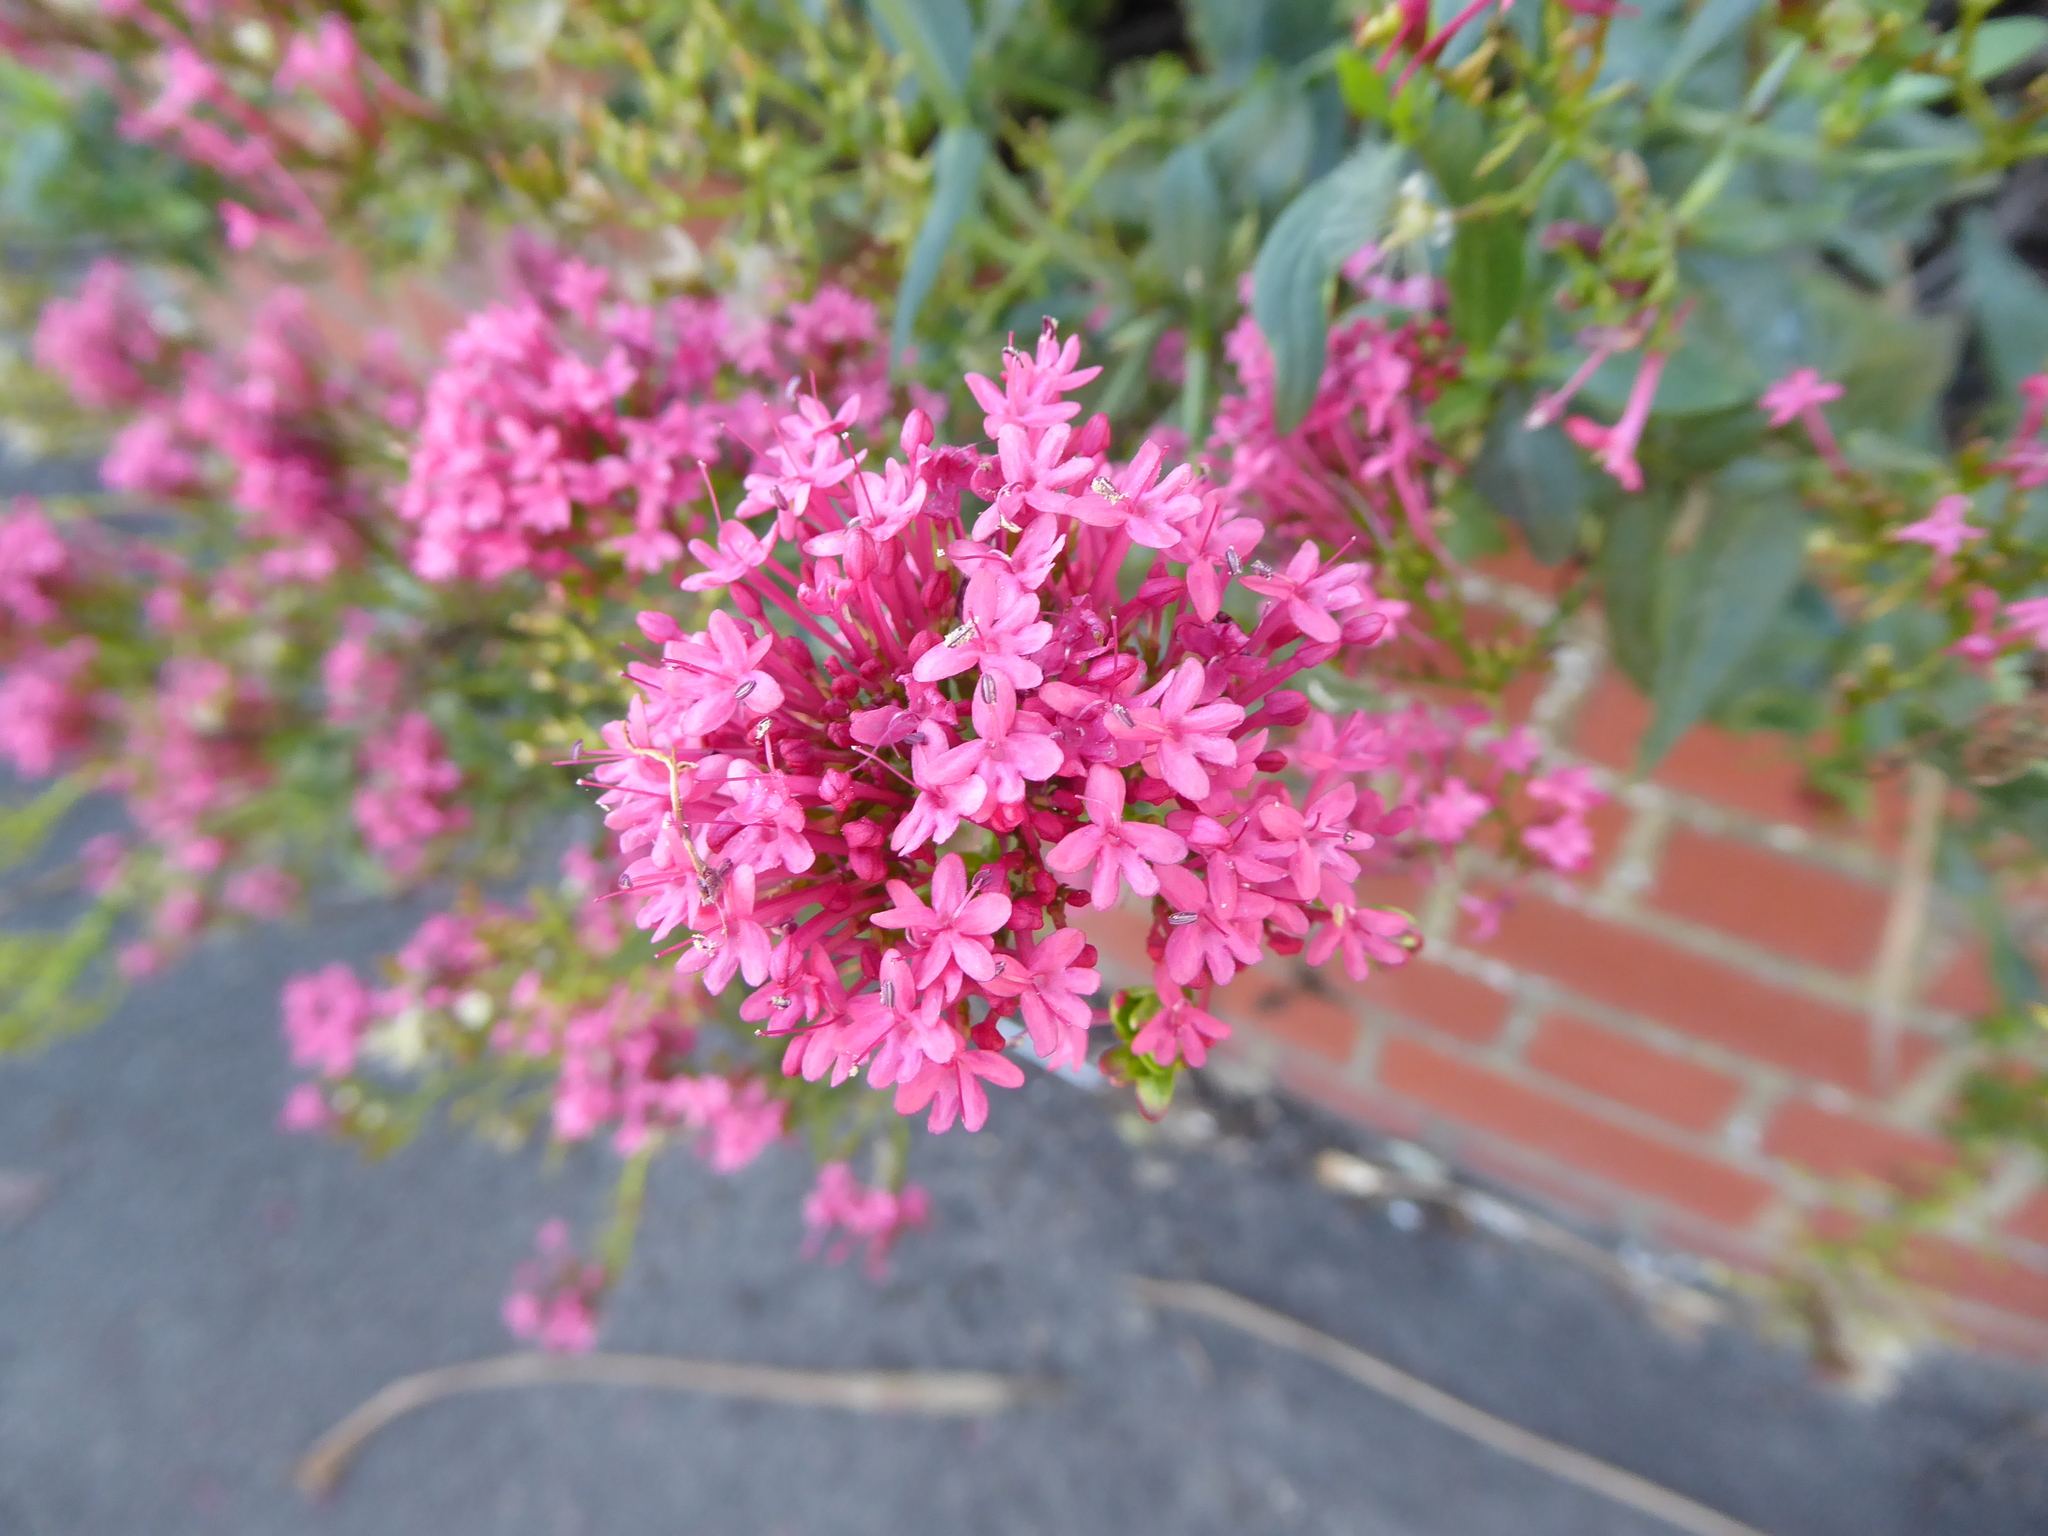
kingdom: Plantae
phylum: Tracheophyta
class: Magnoliopsida
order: Dipsacales
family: Caprifoliaceae
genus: Centranthus
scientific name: Centranthus ruber
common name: Red valerian
